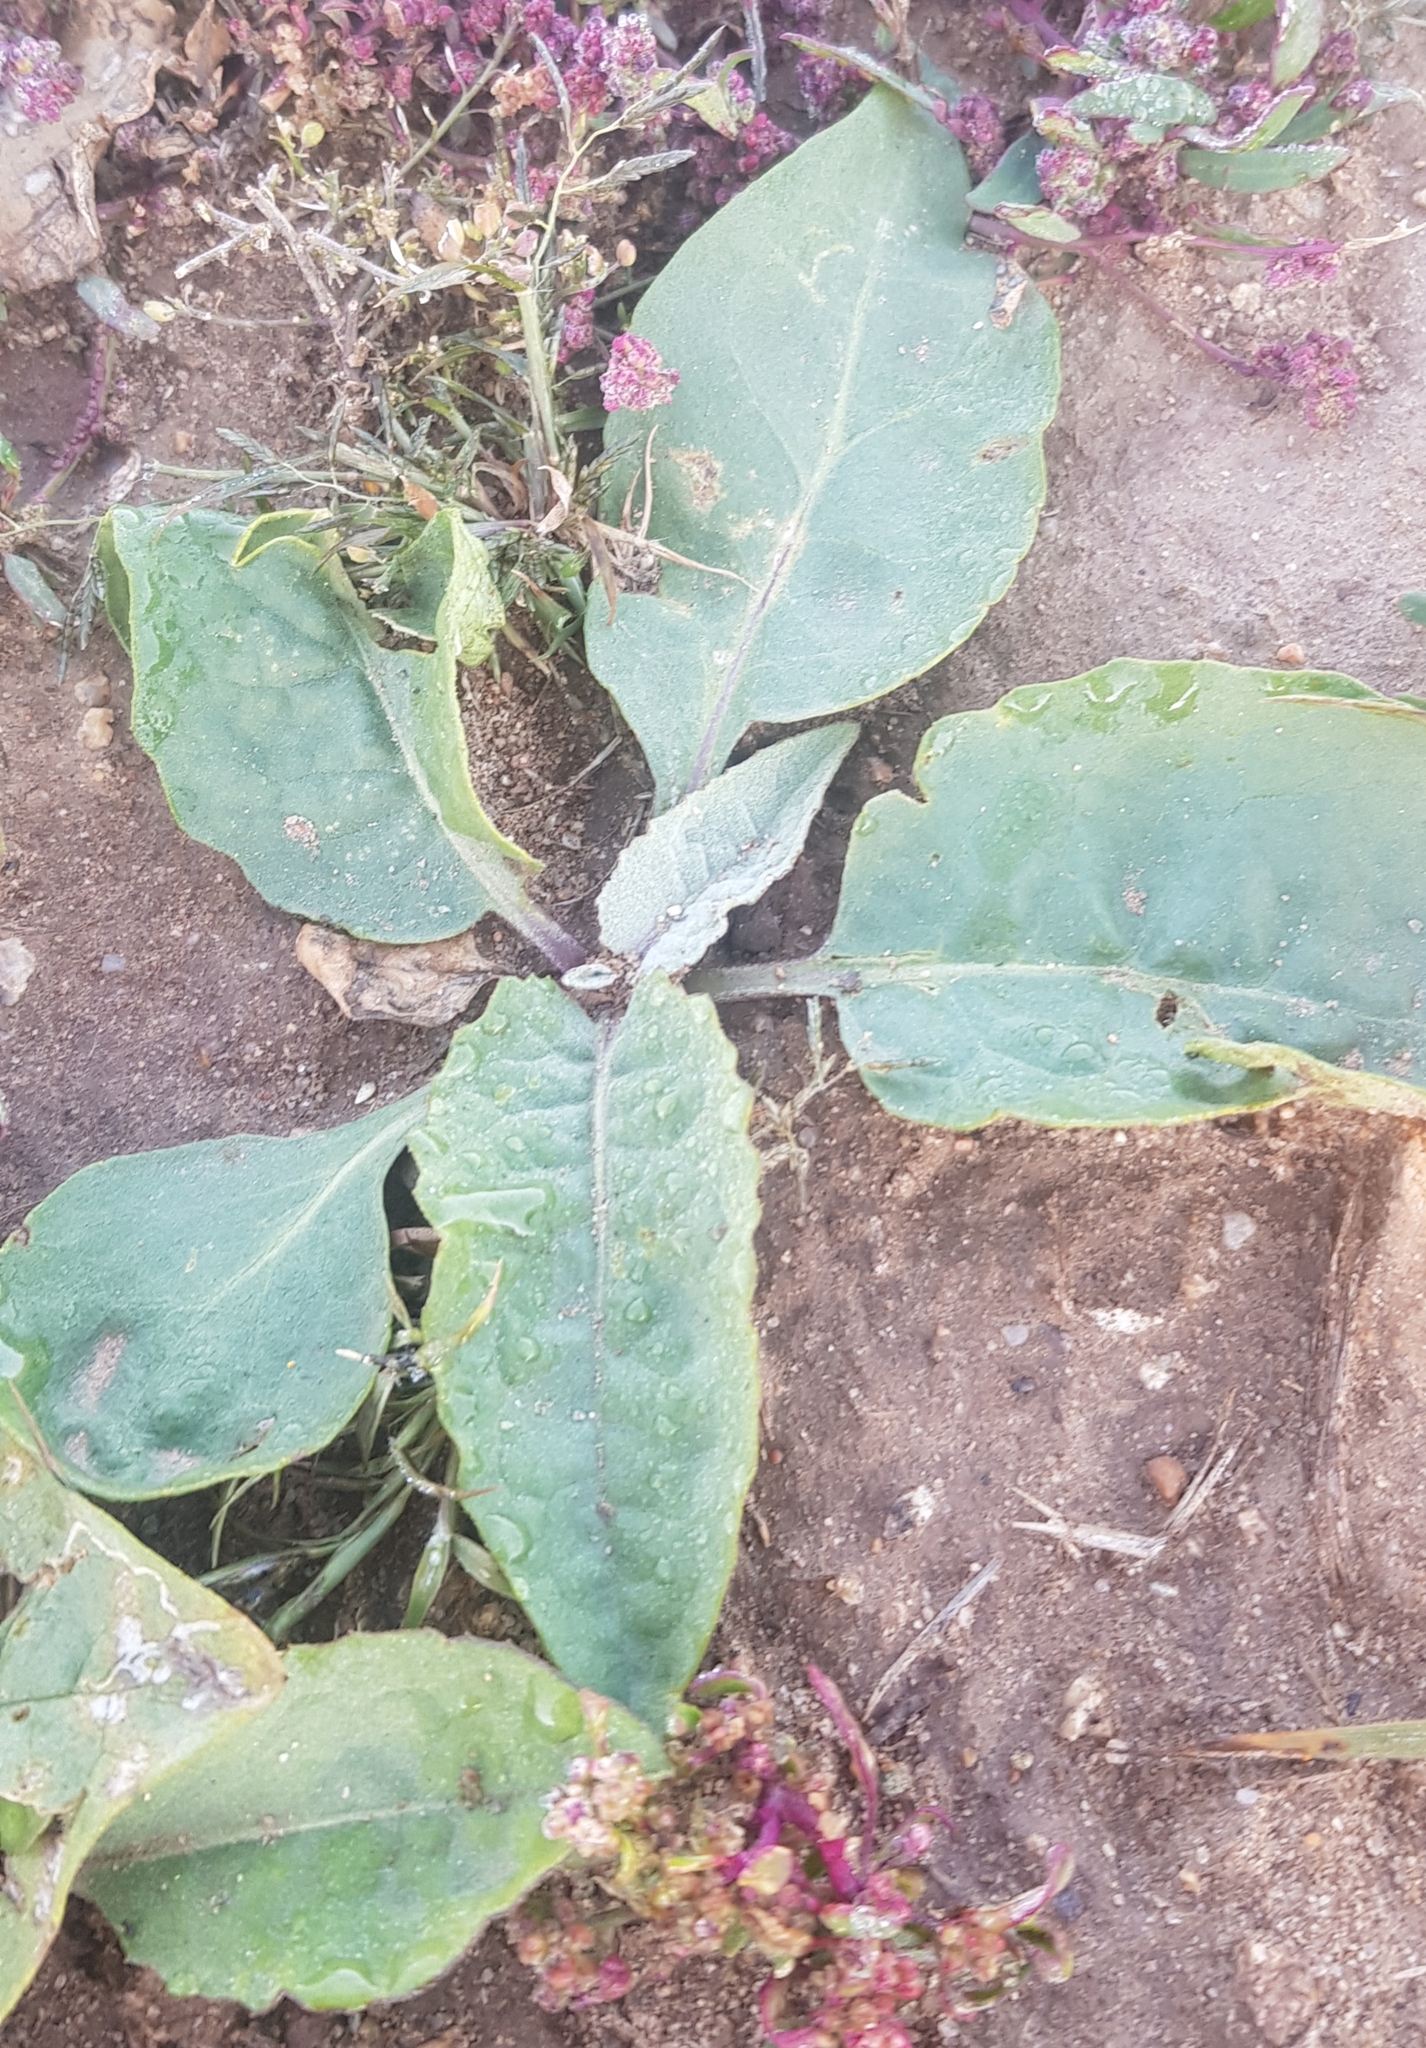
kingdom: Plantae
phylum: Tracheophyta
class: Magnoliopsida
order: Asterales
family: Asteraceae
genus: Saussurea
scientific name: Saussurea amara
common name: Alberta sawwort
